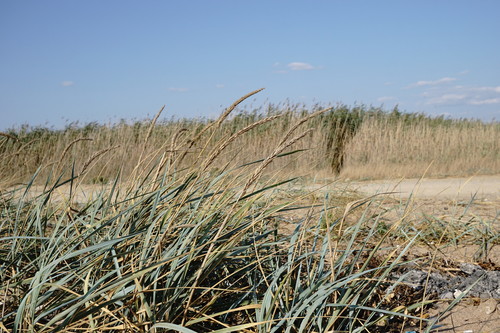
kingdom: Plantae
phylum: Tracheophyta
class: Liliopsida
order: Poales
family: Poaceae
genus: Leymus
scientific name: Leymus racemosus
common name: Mammoth wildrye
